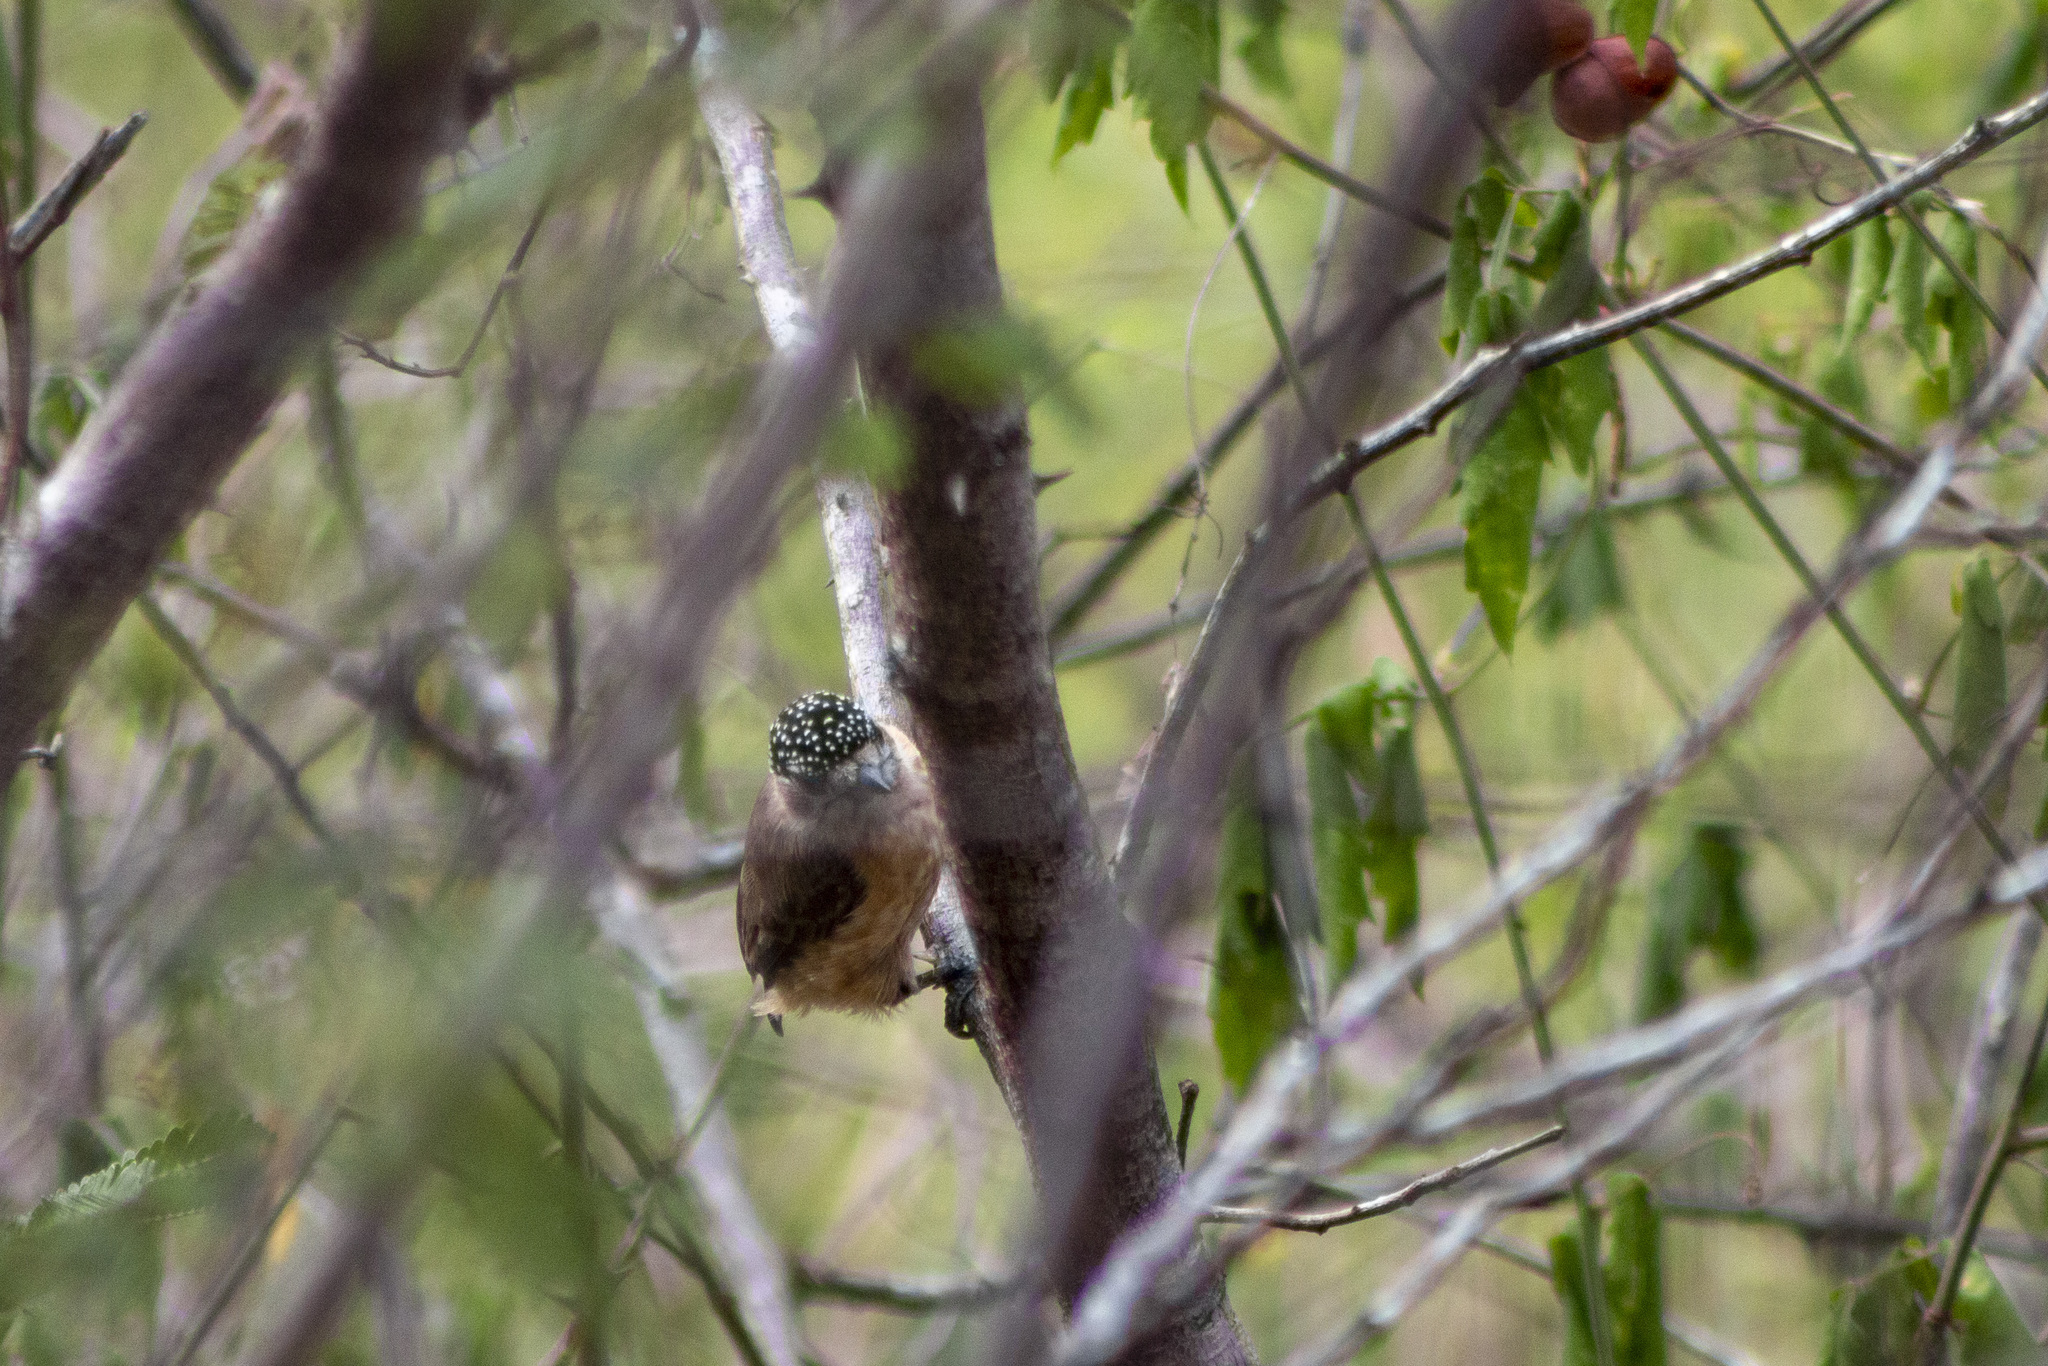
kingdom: Animalia
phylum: Chordata
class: Aves
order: Piciformes
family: Picidae
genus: Picumnus
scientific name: Picumnus limae
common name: Ochraceous piculet
